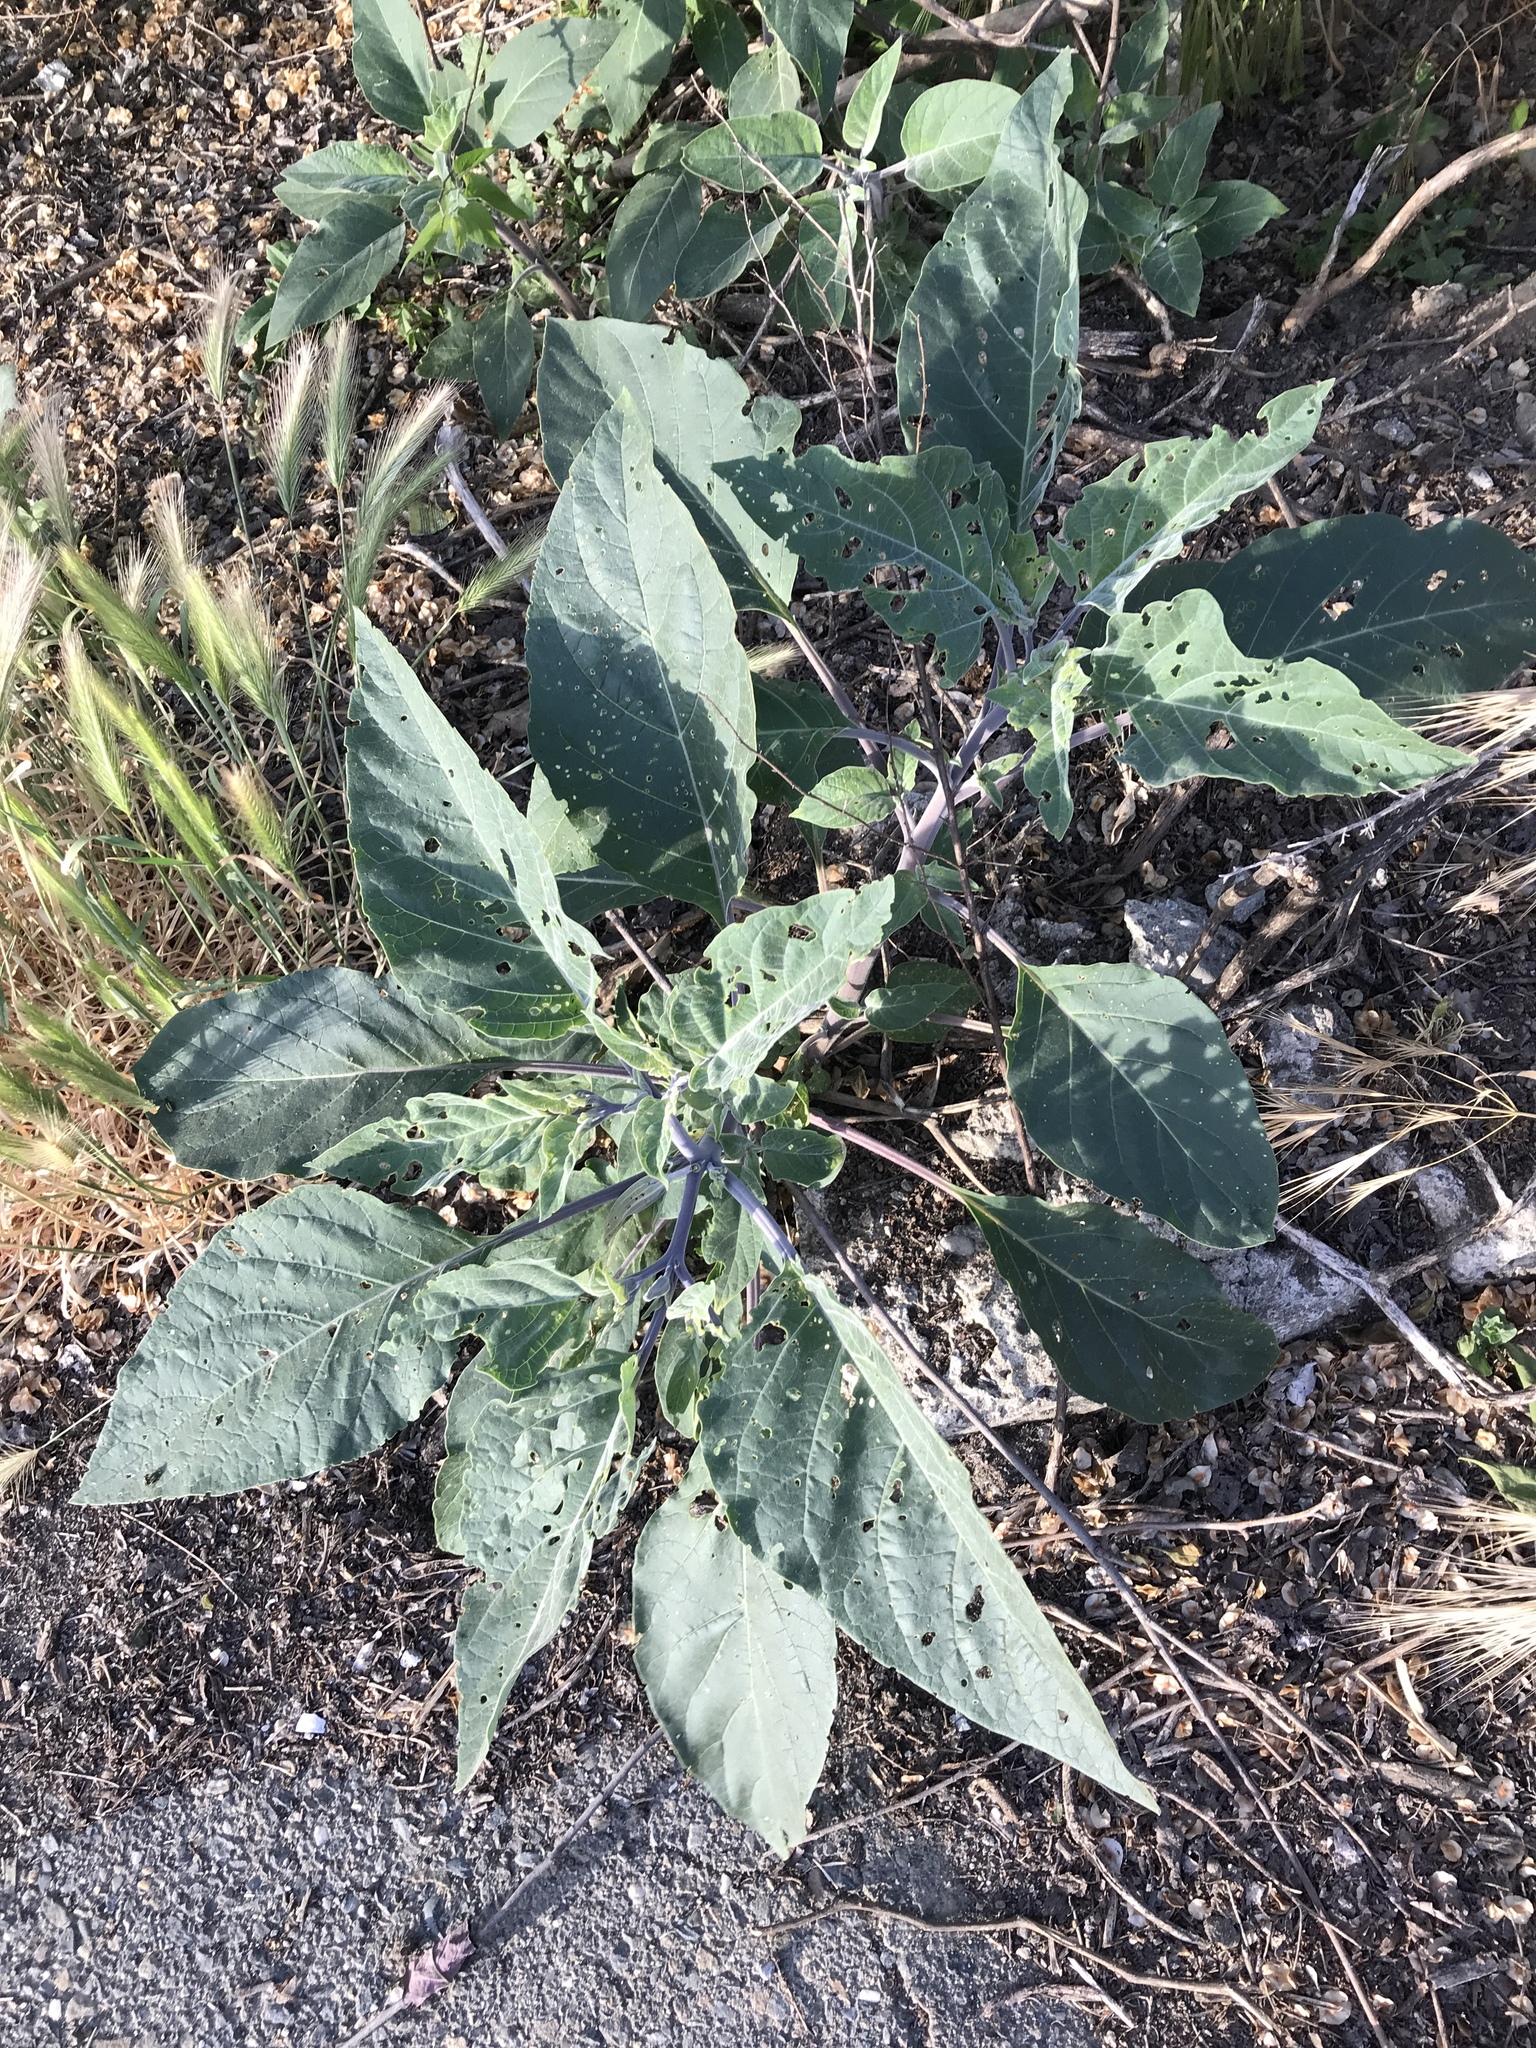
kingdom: Plantae
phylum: Tracheophyta
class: Magnoliopsida
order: Solanales
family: Solanaceae
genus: Datura
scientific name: Datura wrightii
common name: Sacred thorn-apple
